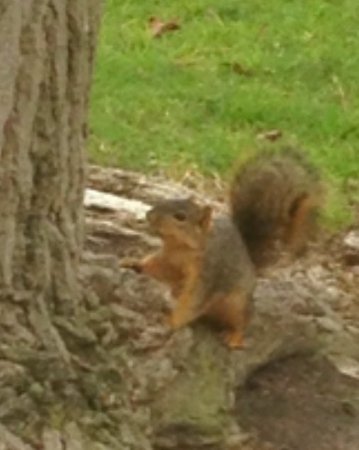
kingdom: Animalia
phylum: Chordata
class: Mammalia
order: Rodentia
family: Sciuridae
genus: Sciurus
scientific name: Sciurus niger
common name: Fox squirrel
